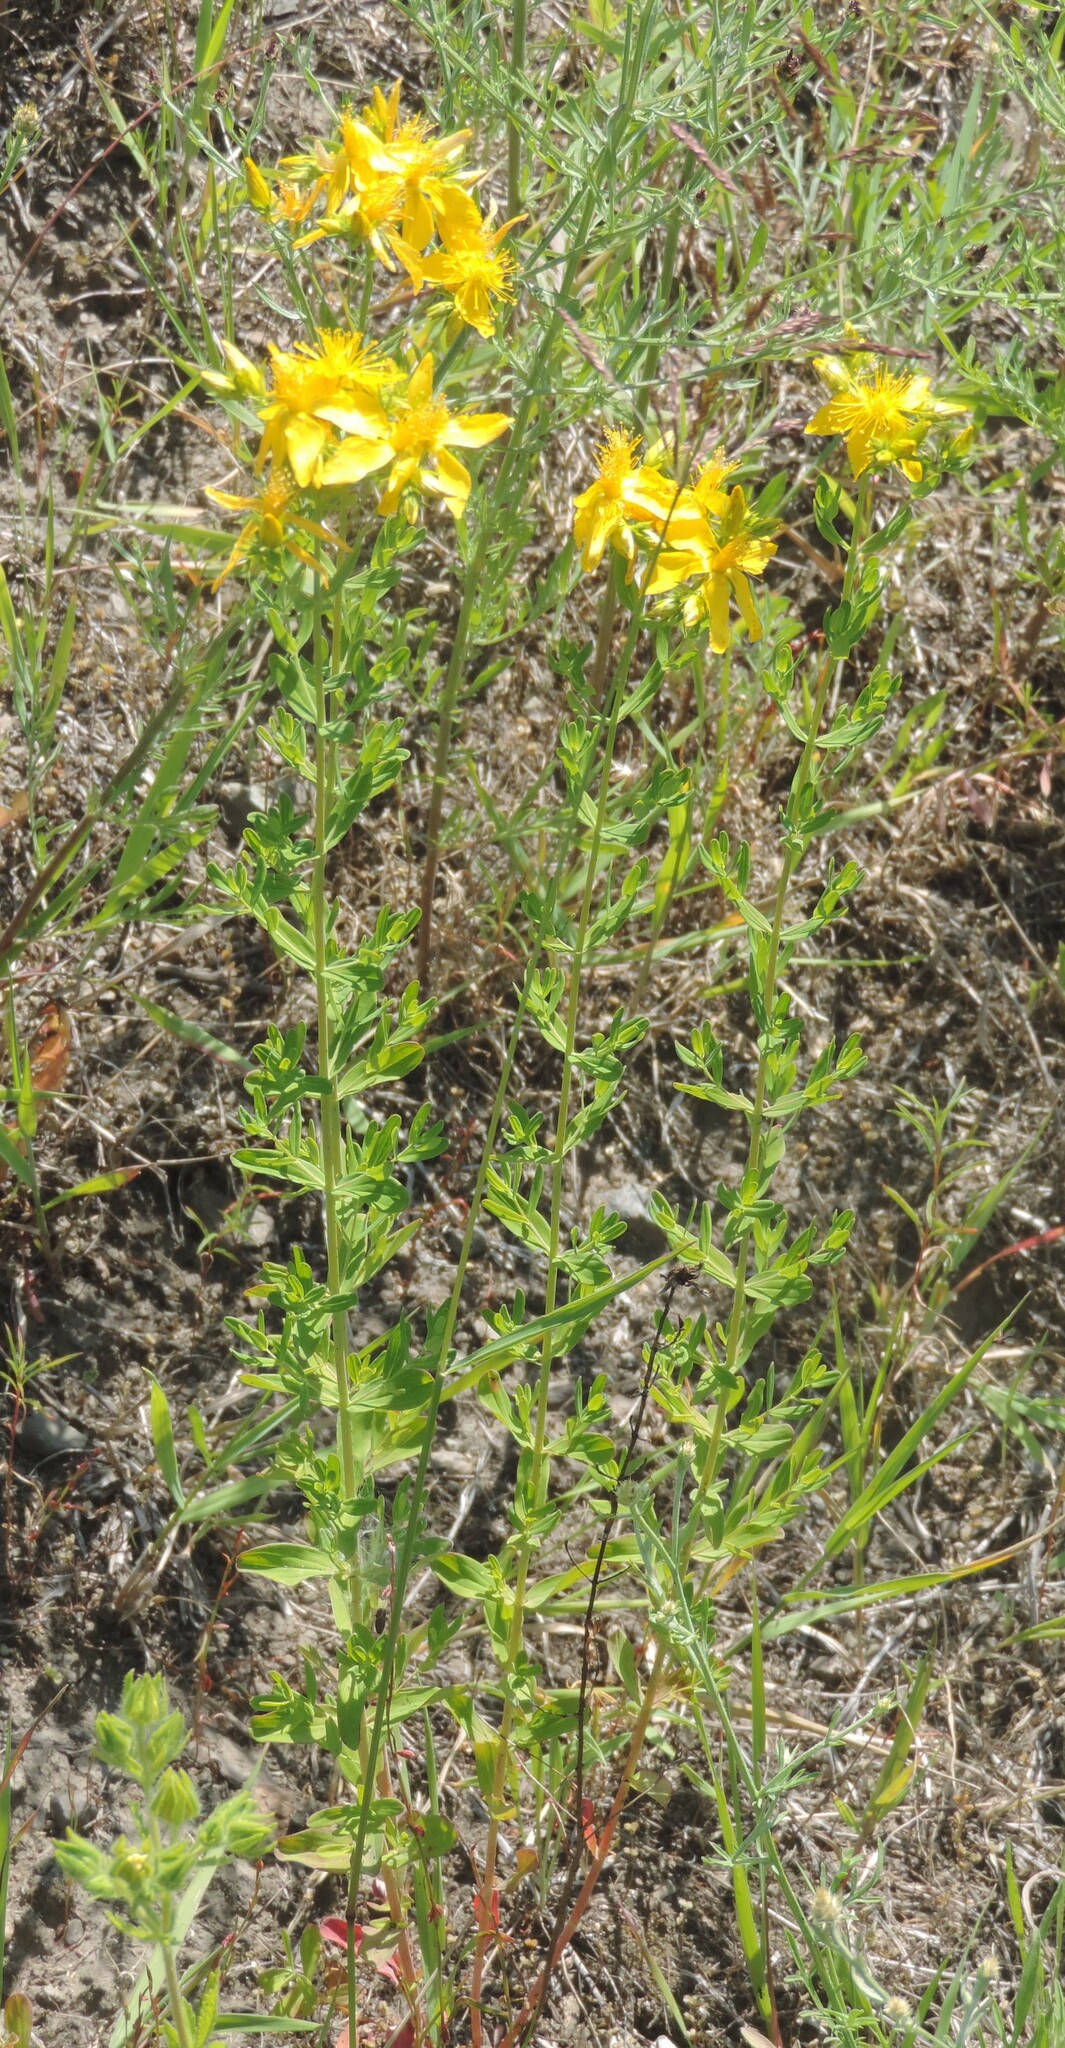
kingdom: Plantae
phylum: Tracheophyta
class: Magnoliopsida
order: Malpighiales
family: Hypericaceae
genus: Hypericum
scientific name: Hypericum perforatum
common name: Common st. johnswort
